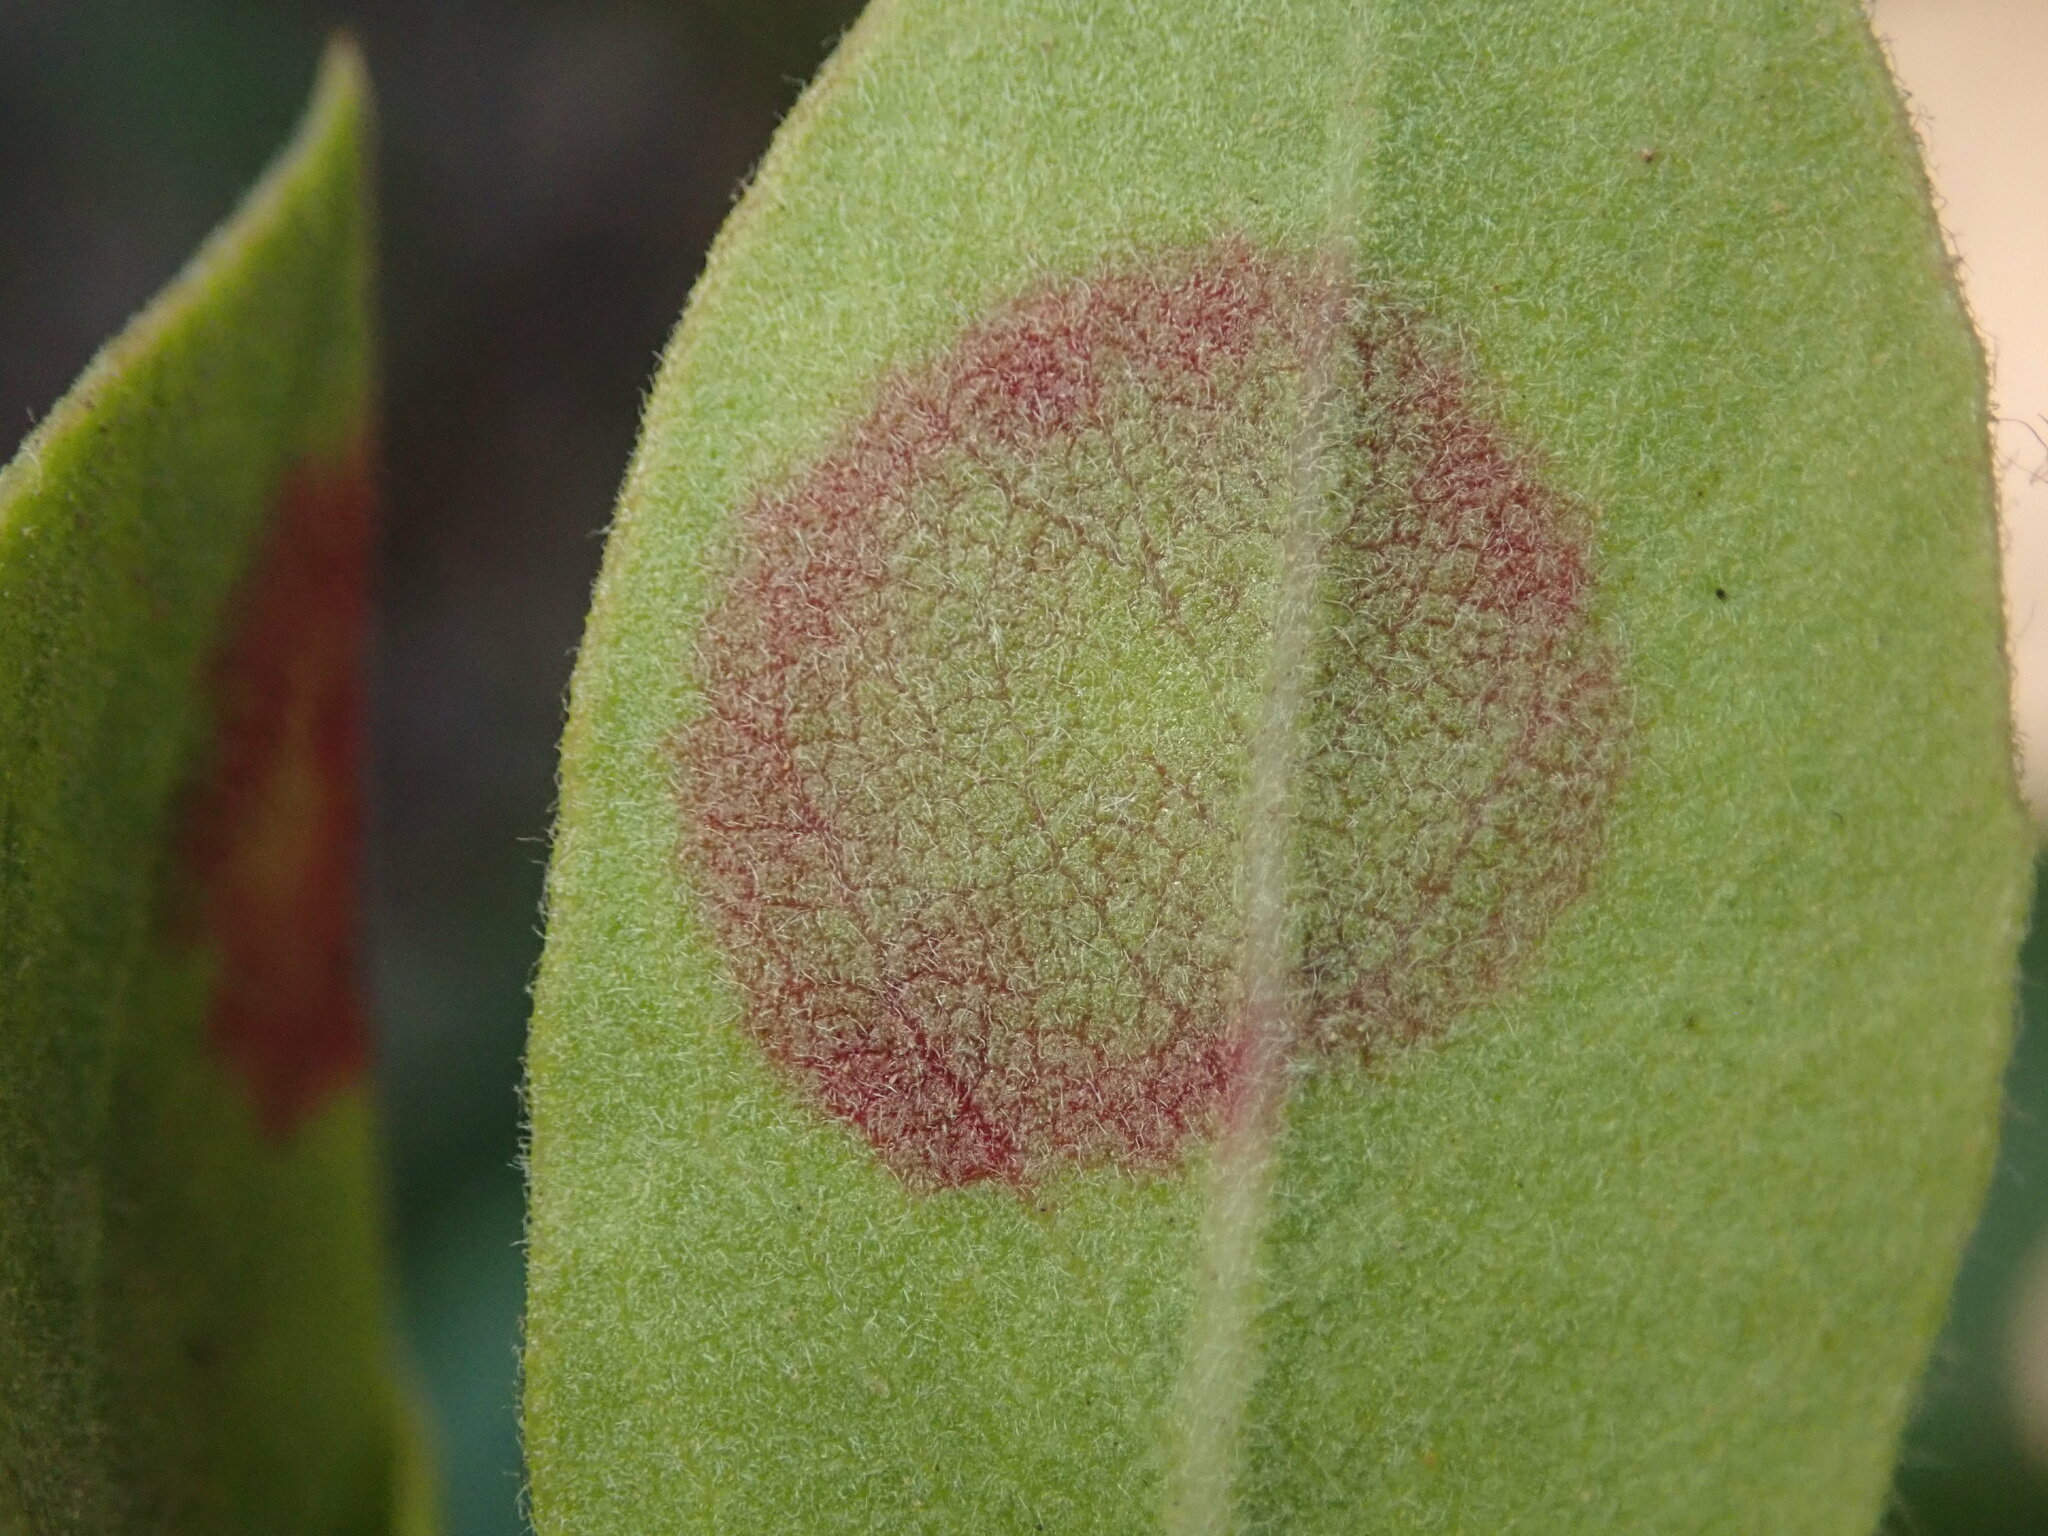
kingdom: Fungi
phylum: Basidiomycota
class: Exobasidiomycetes
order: Exobasidiales
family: Exobasidiaceae
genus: Exobasidium
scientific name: Exobasidium arctostaphyli
